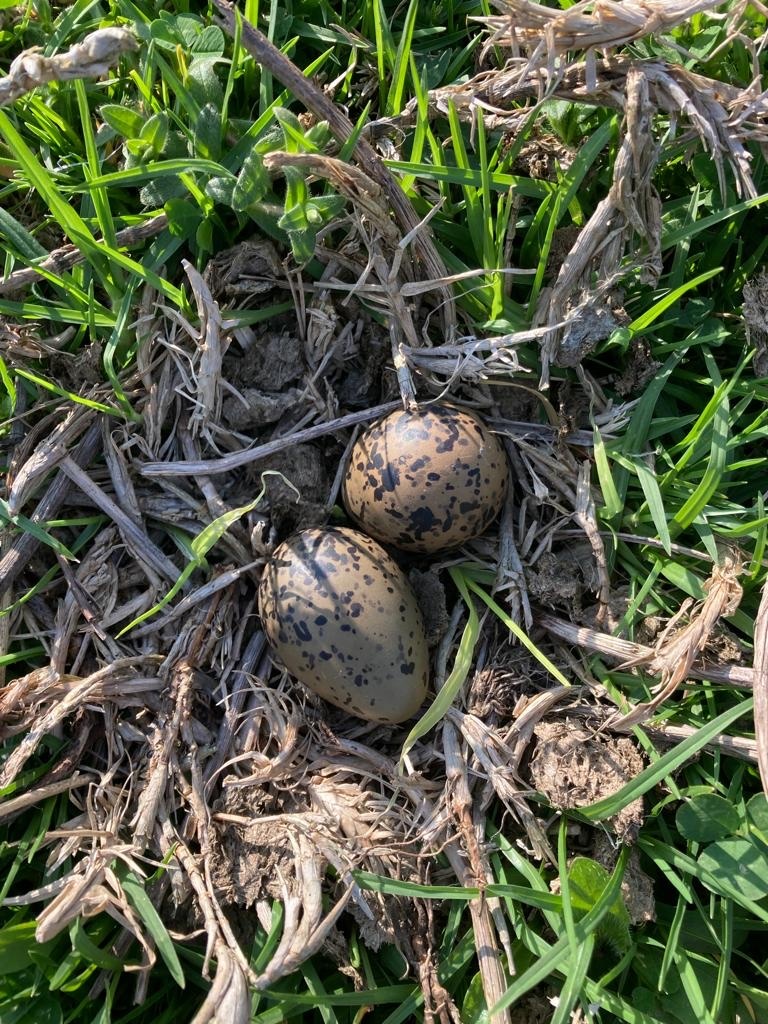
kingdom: Animalia
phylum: Chordata
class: Aves
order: Charadriiformes
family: Charadriidae
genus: Vanellus
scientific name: Vanellus chilensis
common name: Southern lapwing
